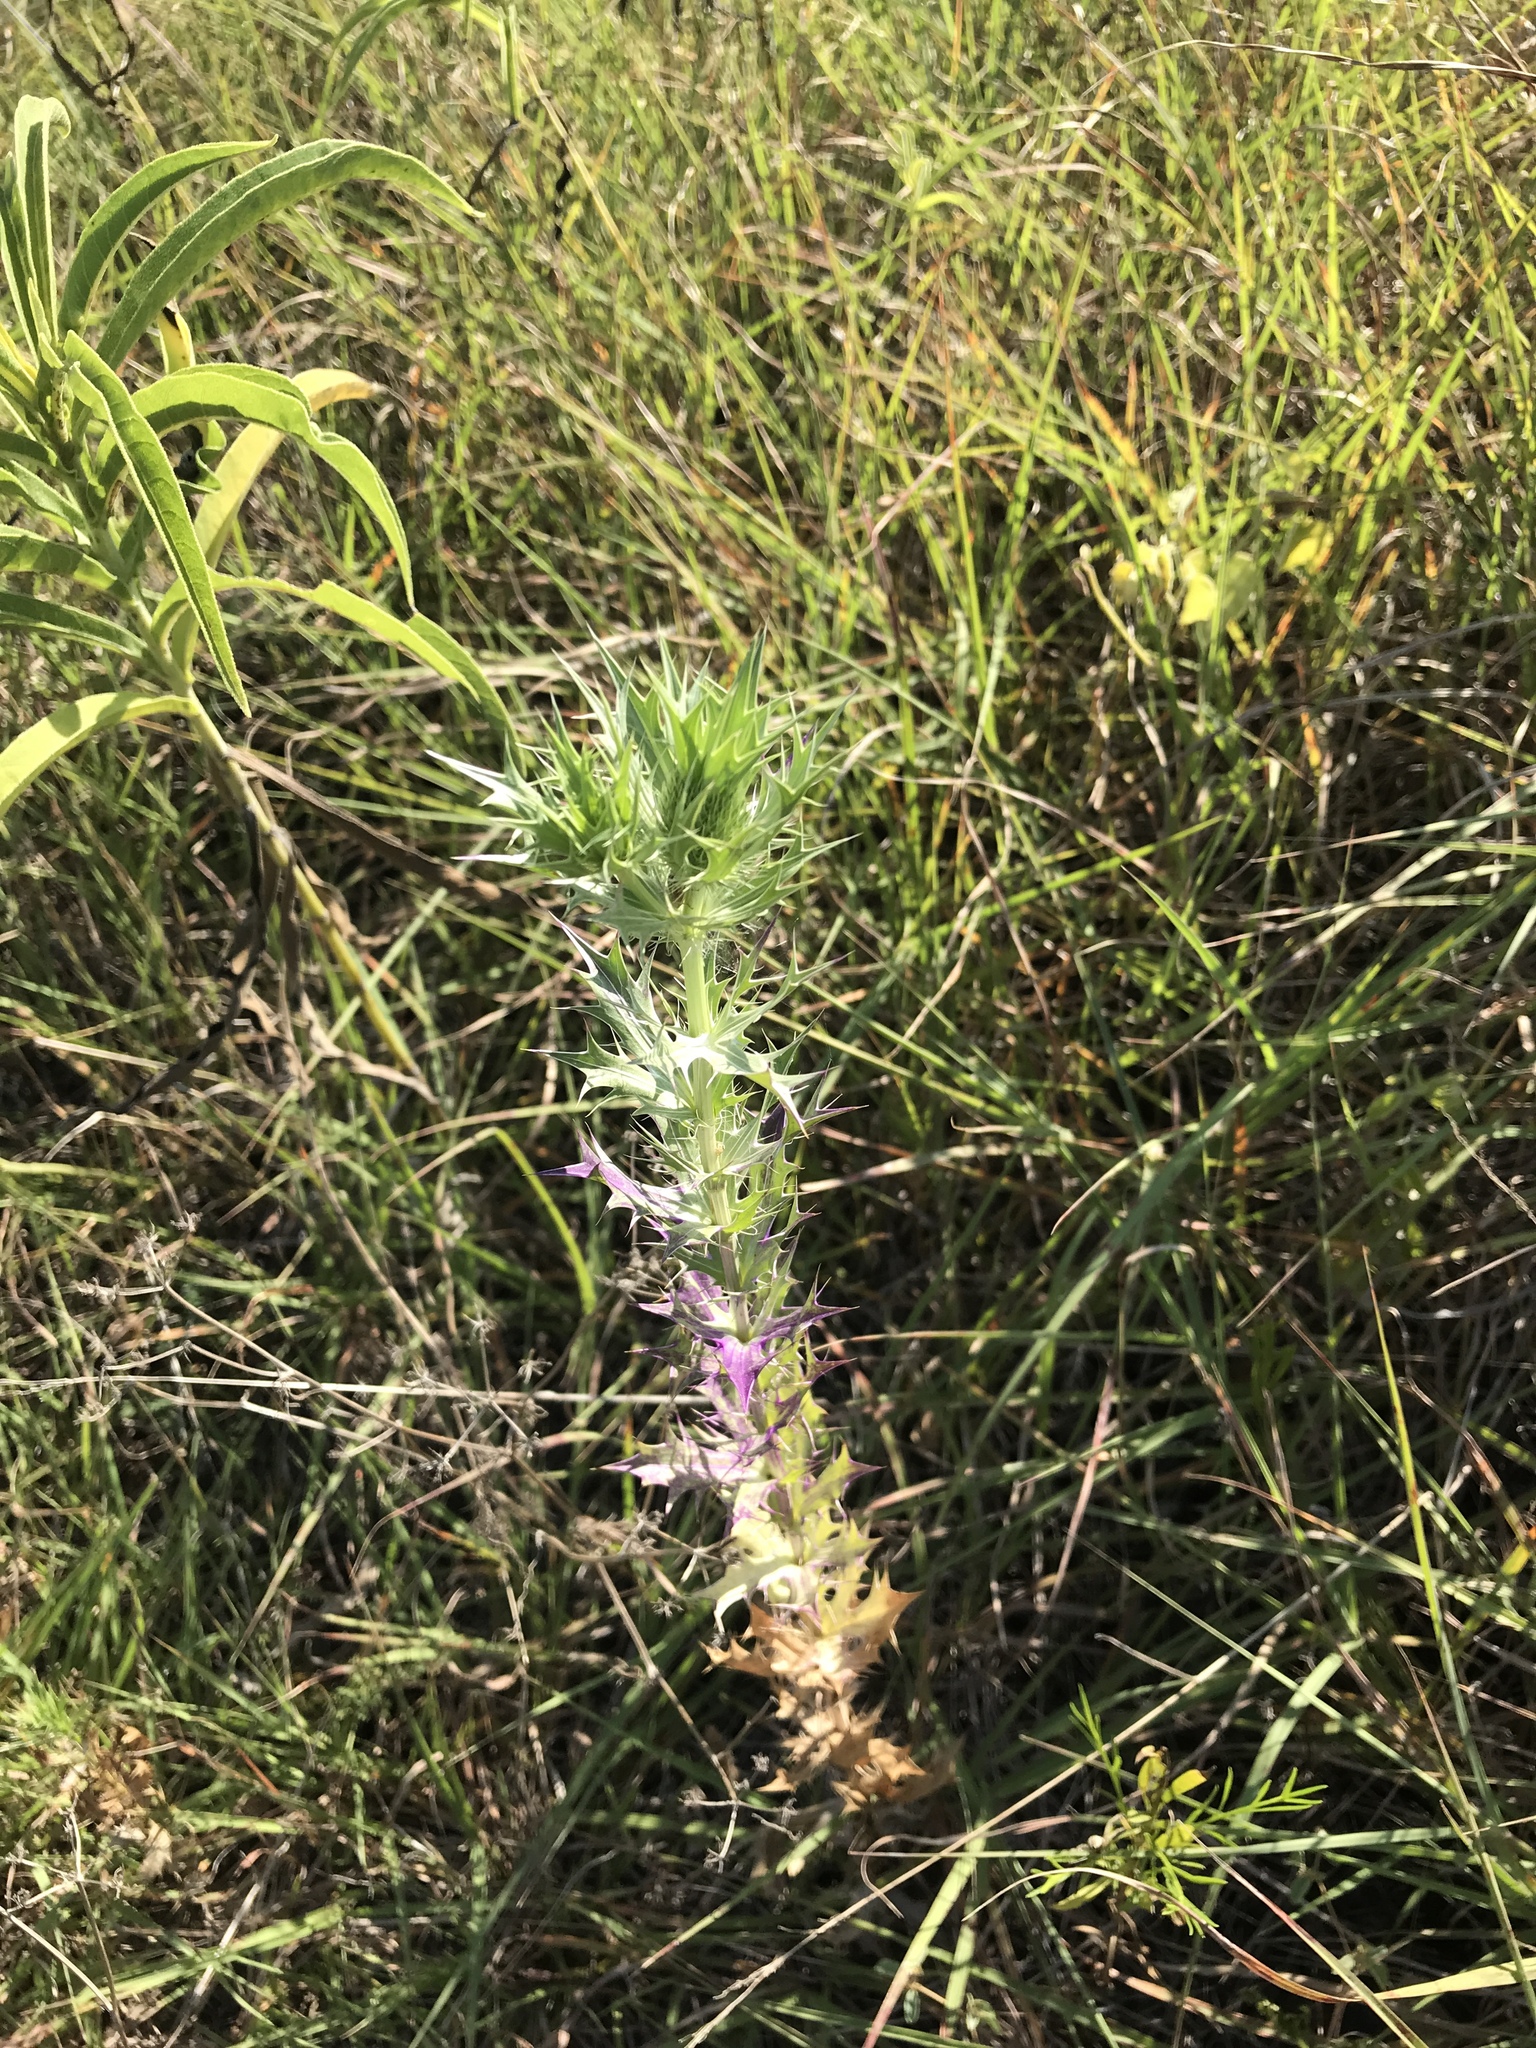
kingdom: Plantae
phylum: Tracheophyta
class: Magnoliopsida
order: Apiales
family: Apiaceae
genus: Eryngium
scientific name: Eryngium leavenworthii
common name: Leavenworth's eryngo
